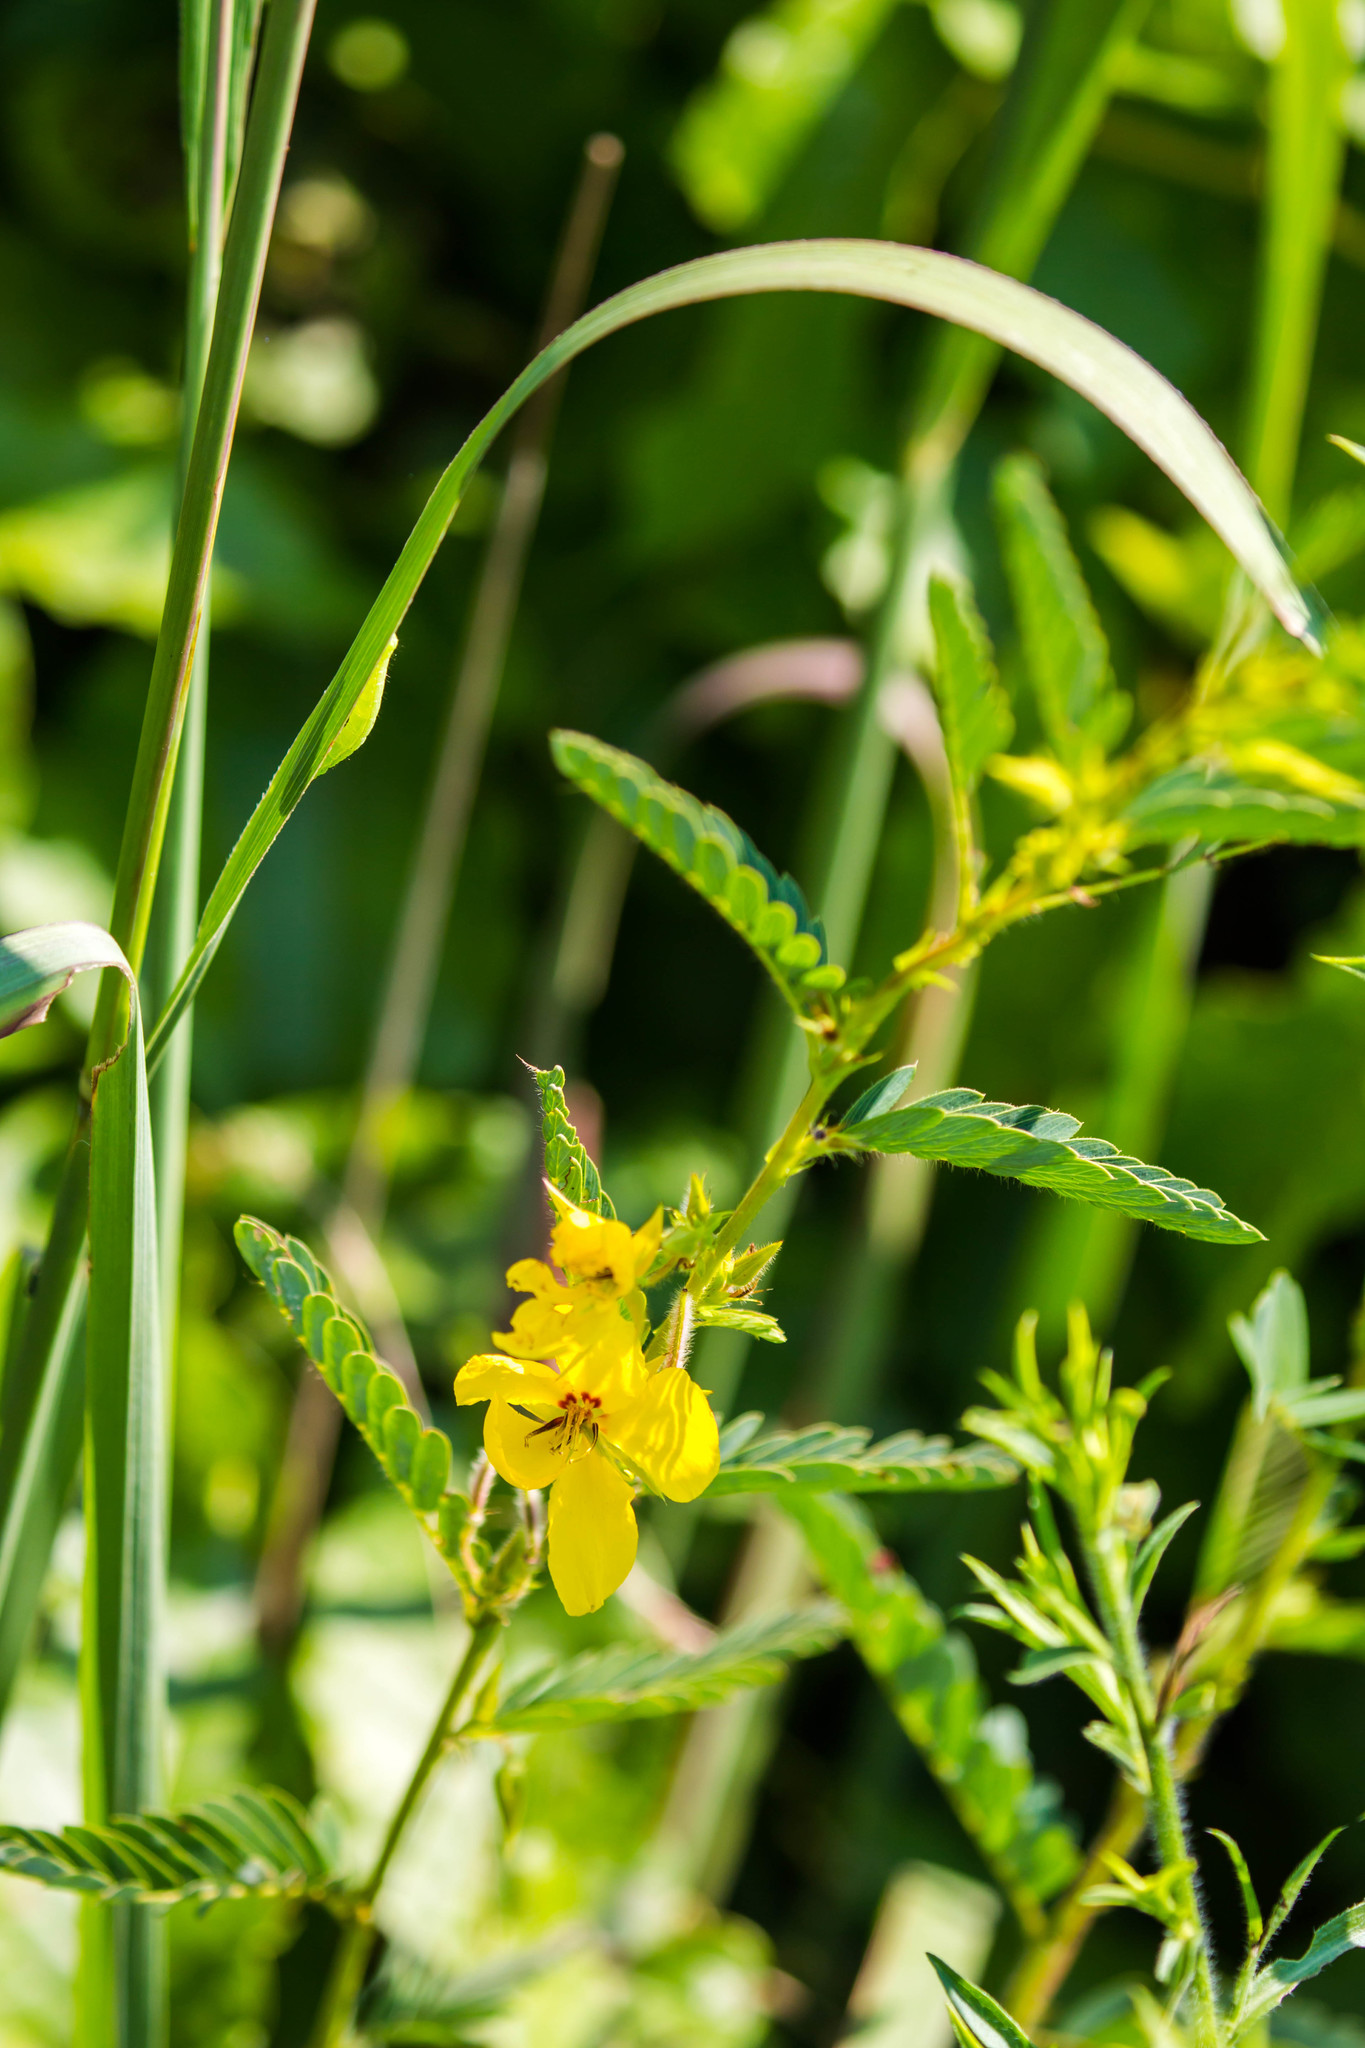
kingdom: Plantae
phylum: Tracheophyta
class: Magnoliopsida
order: Fabales
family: Fabaceae
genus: Chamaecrista
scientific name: Chamaecrista fasciculata
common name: Golden cassia
